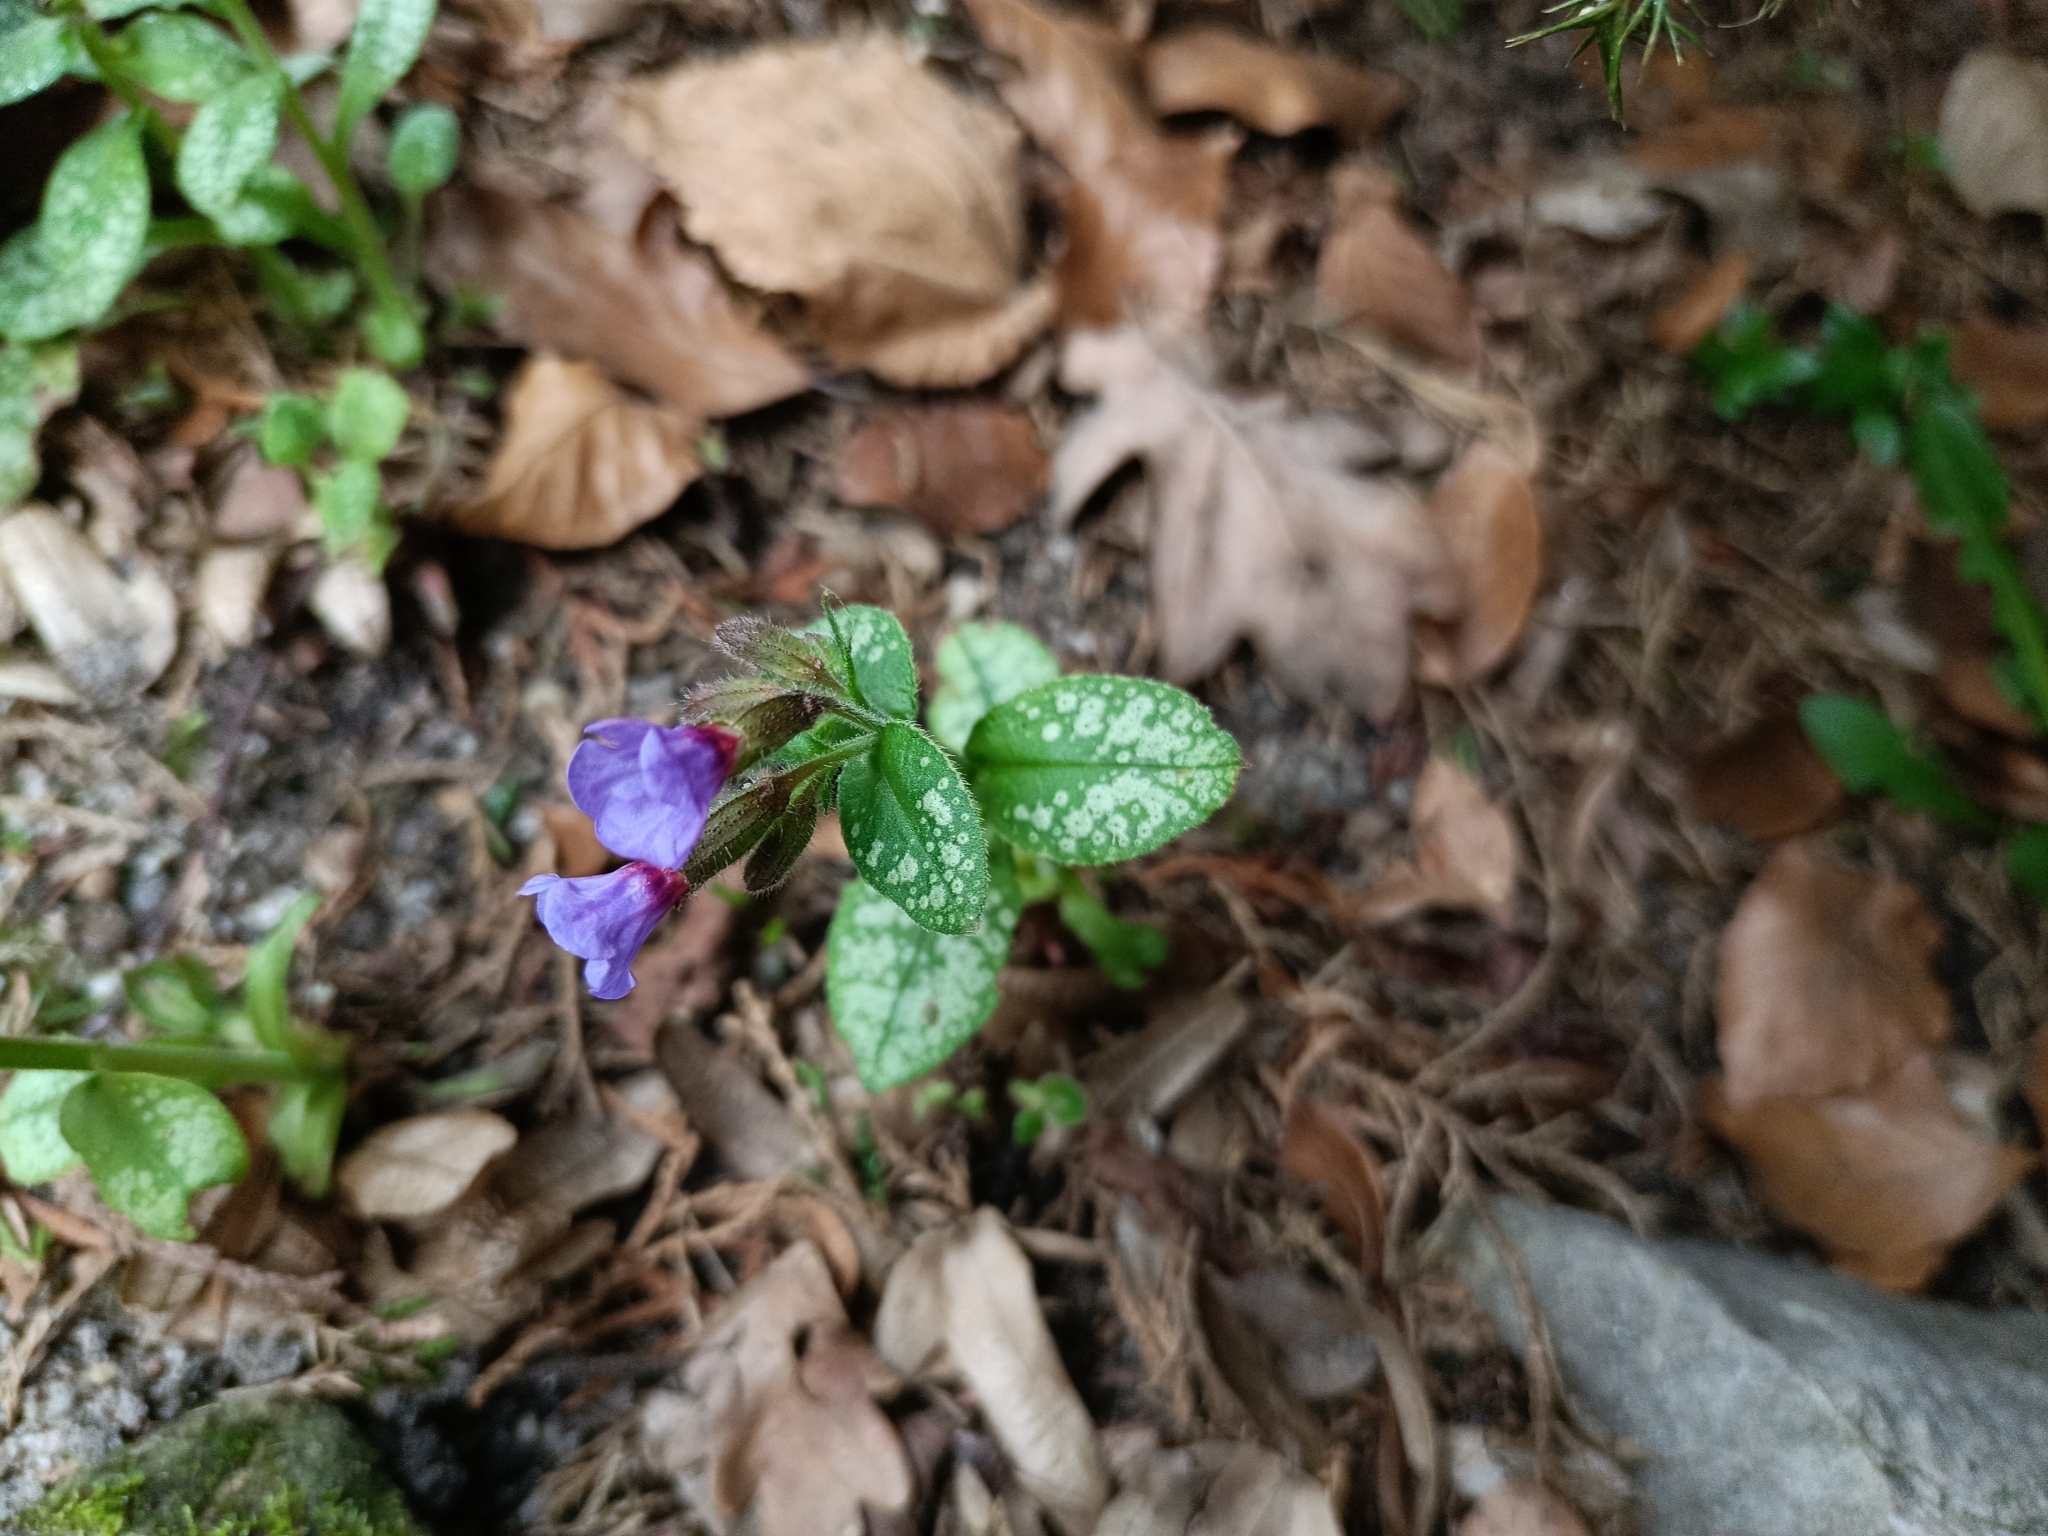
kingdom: Plantae
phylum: Tracheophyta
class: Magnoliopsida
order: Boraginales
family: Boraginaceae
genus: Pulmonaria
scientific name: Pulmonaria officinalis
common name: Lungwort
